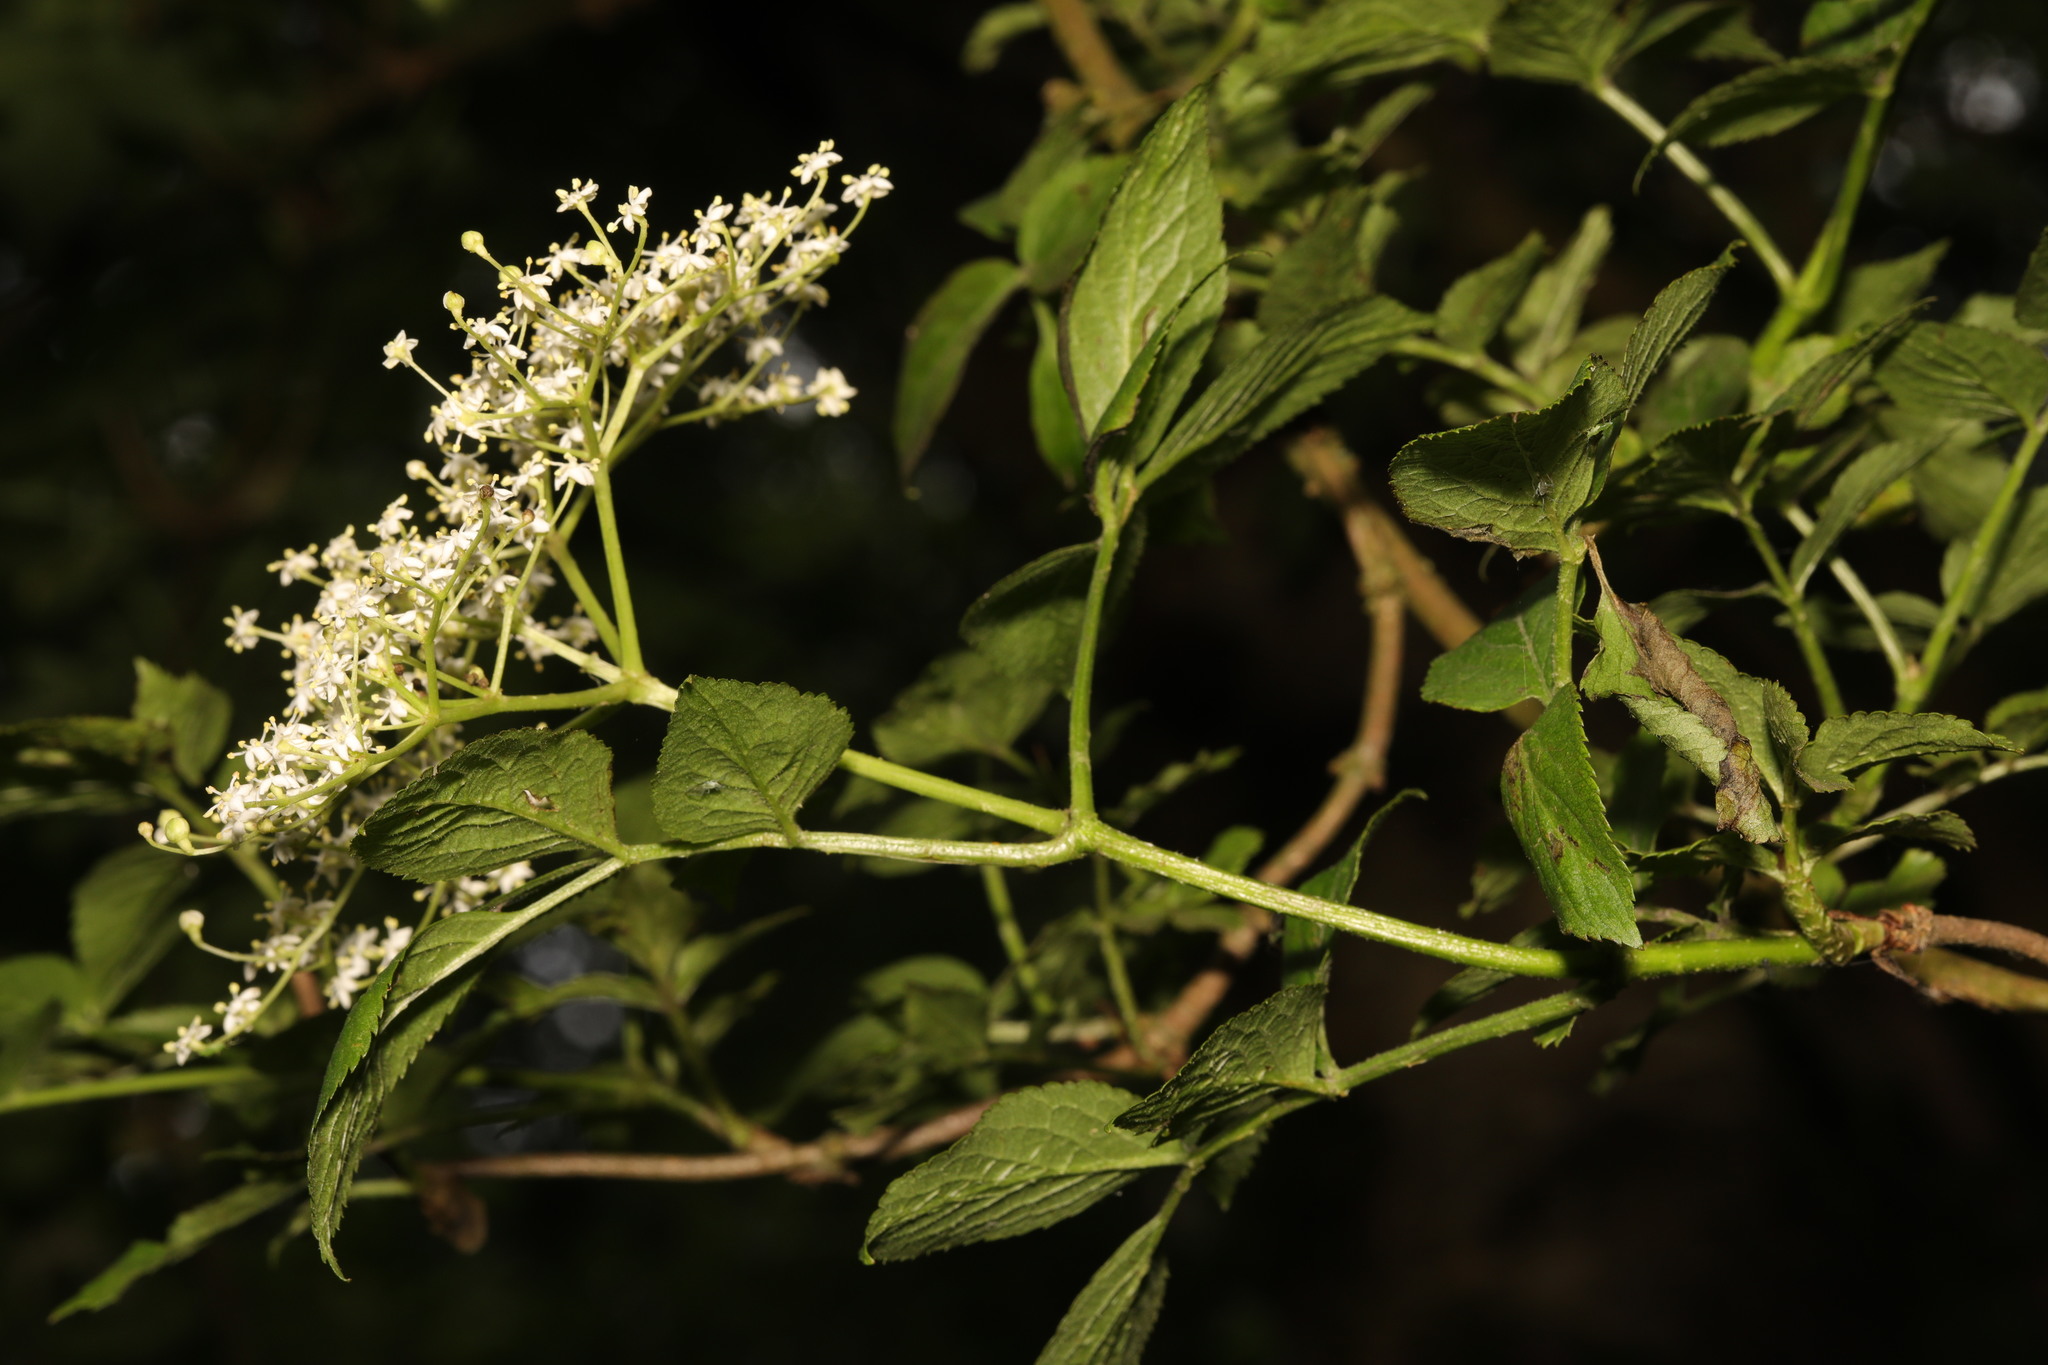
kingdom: Plantae
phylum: Tracheophyta
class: Magnoliopsida
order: Dipsacales
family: Viburnaceae
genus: Sambucus
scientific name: Sambucus nigra
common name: Elder
